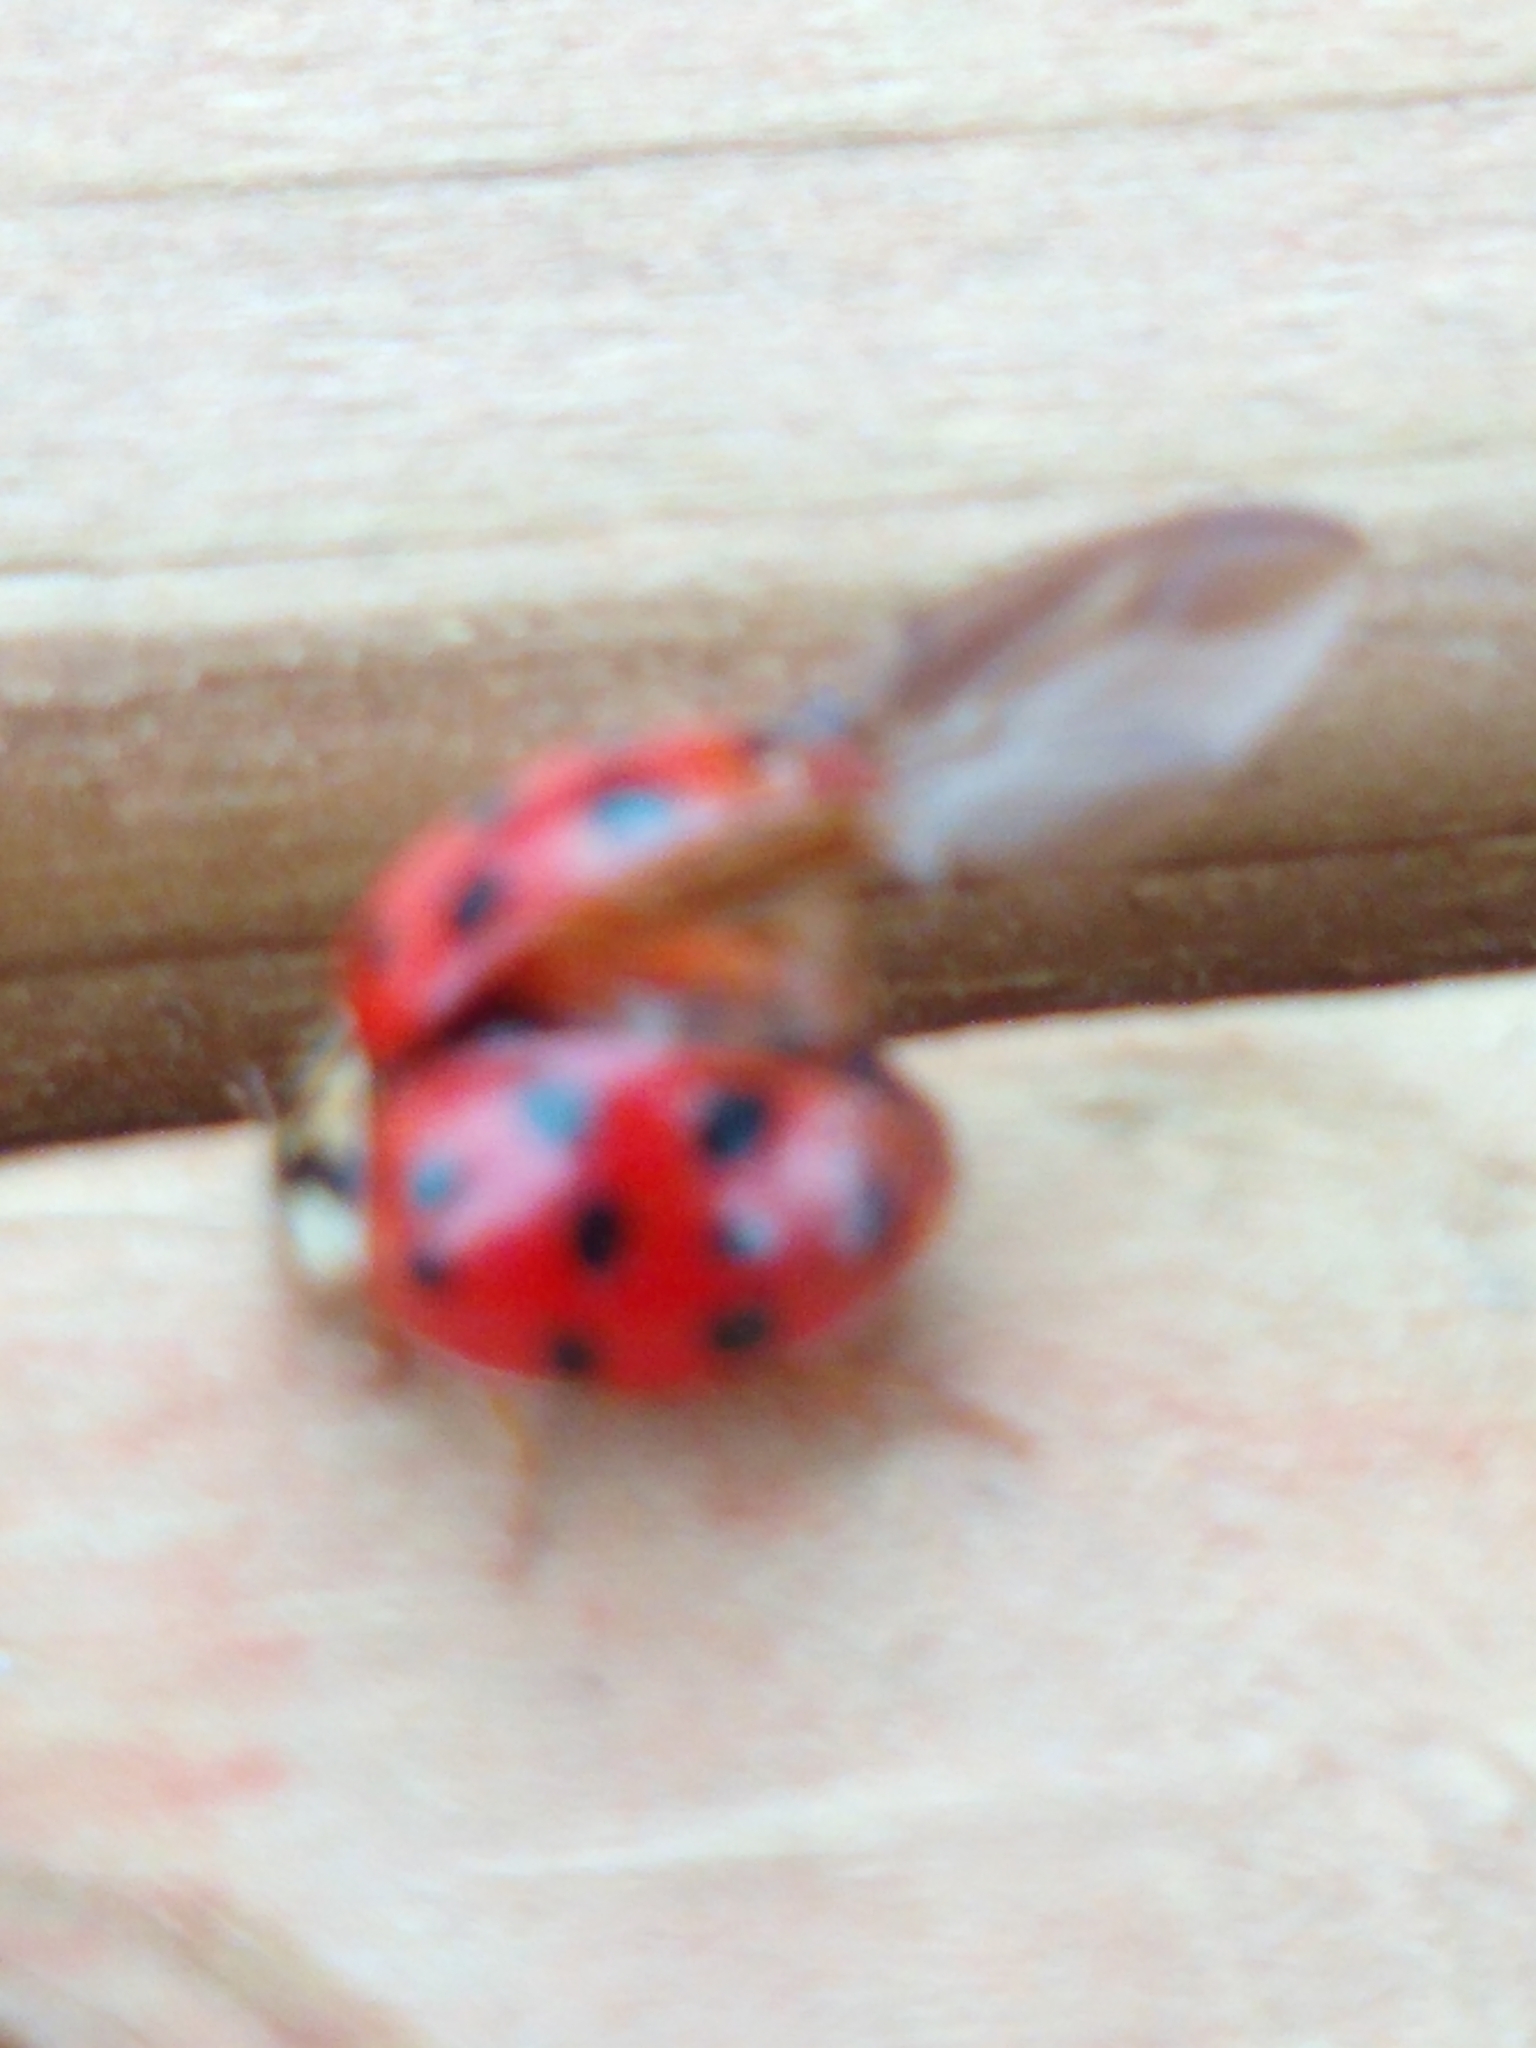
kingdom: Animalia
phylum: Arthropoda
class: Insecta
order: Coleoptera
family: Coccinellidae
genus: Harmonia
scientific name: Harmonia axyridis
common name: Harlequin ladybird
